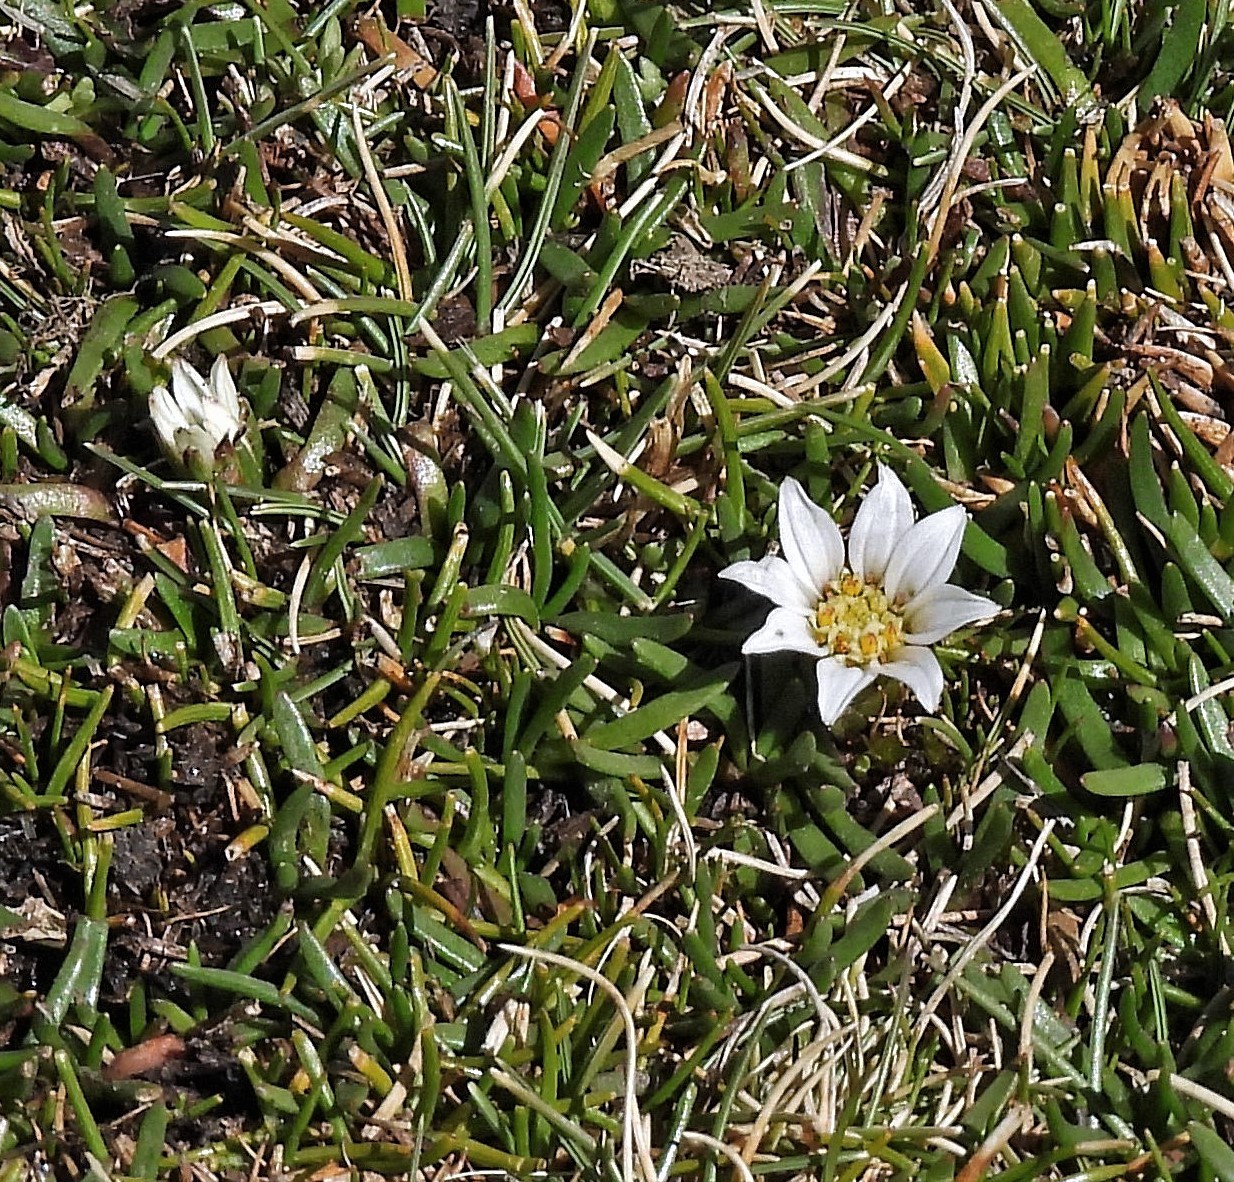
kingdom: Plantae
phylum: Tracheophyta
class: Magnoliopsida
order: Asterales
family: Asteraceae
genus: Rockhausenia
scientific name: Rockhausenia pygmaea
